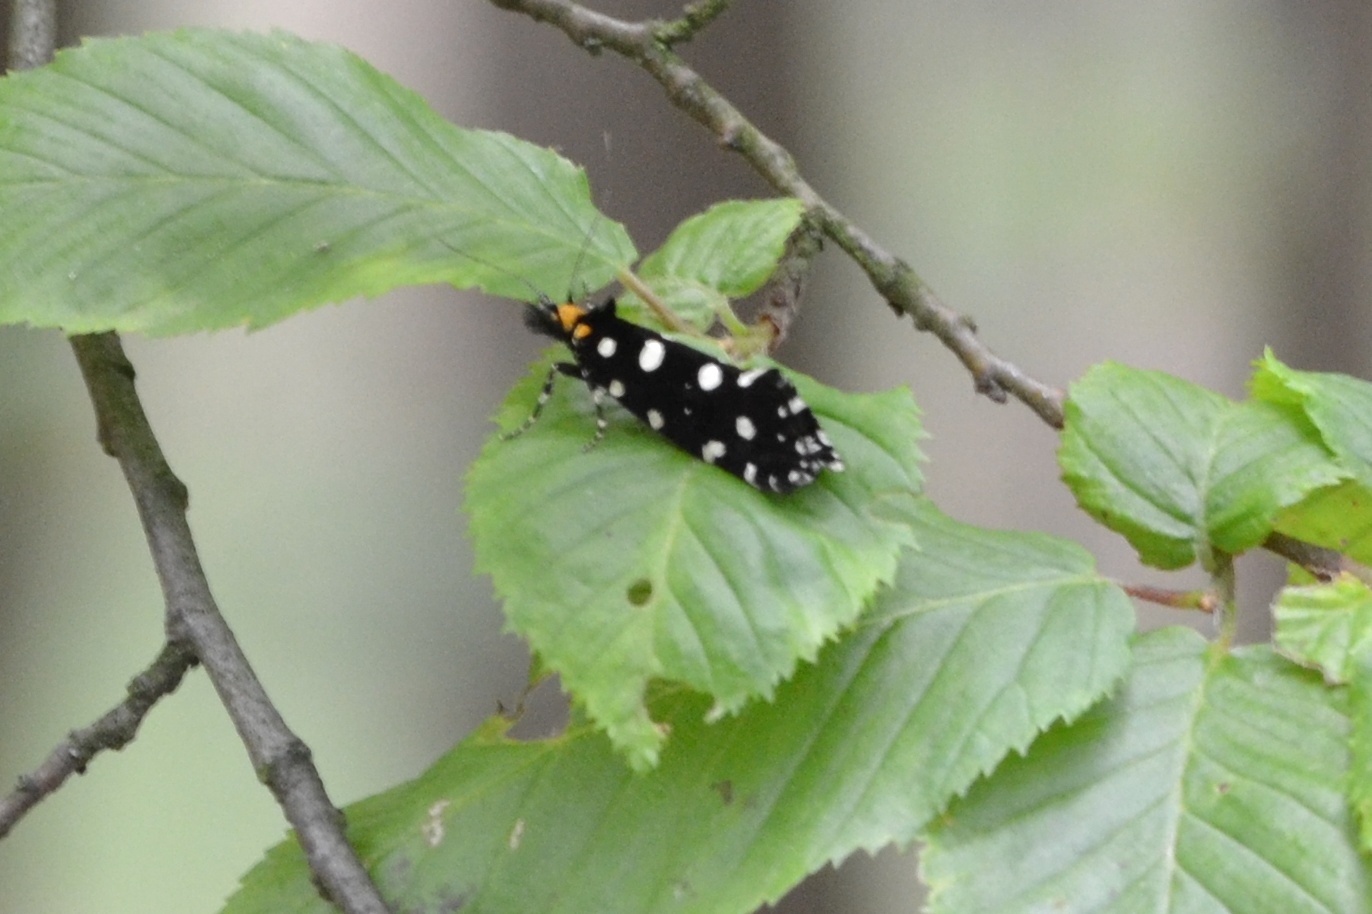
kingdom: Animalia
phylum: Arthropoda
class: Insecta
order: Lepidoptera
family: Tineidae
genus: Euplocamus
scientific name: Euplocamus anthracinalis
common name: Black clothes
